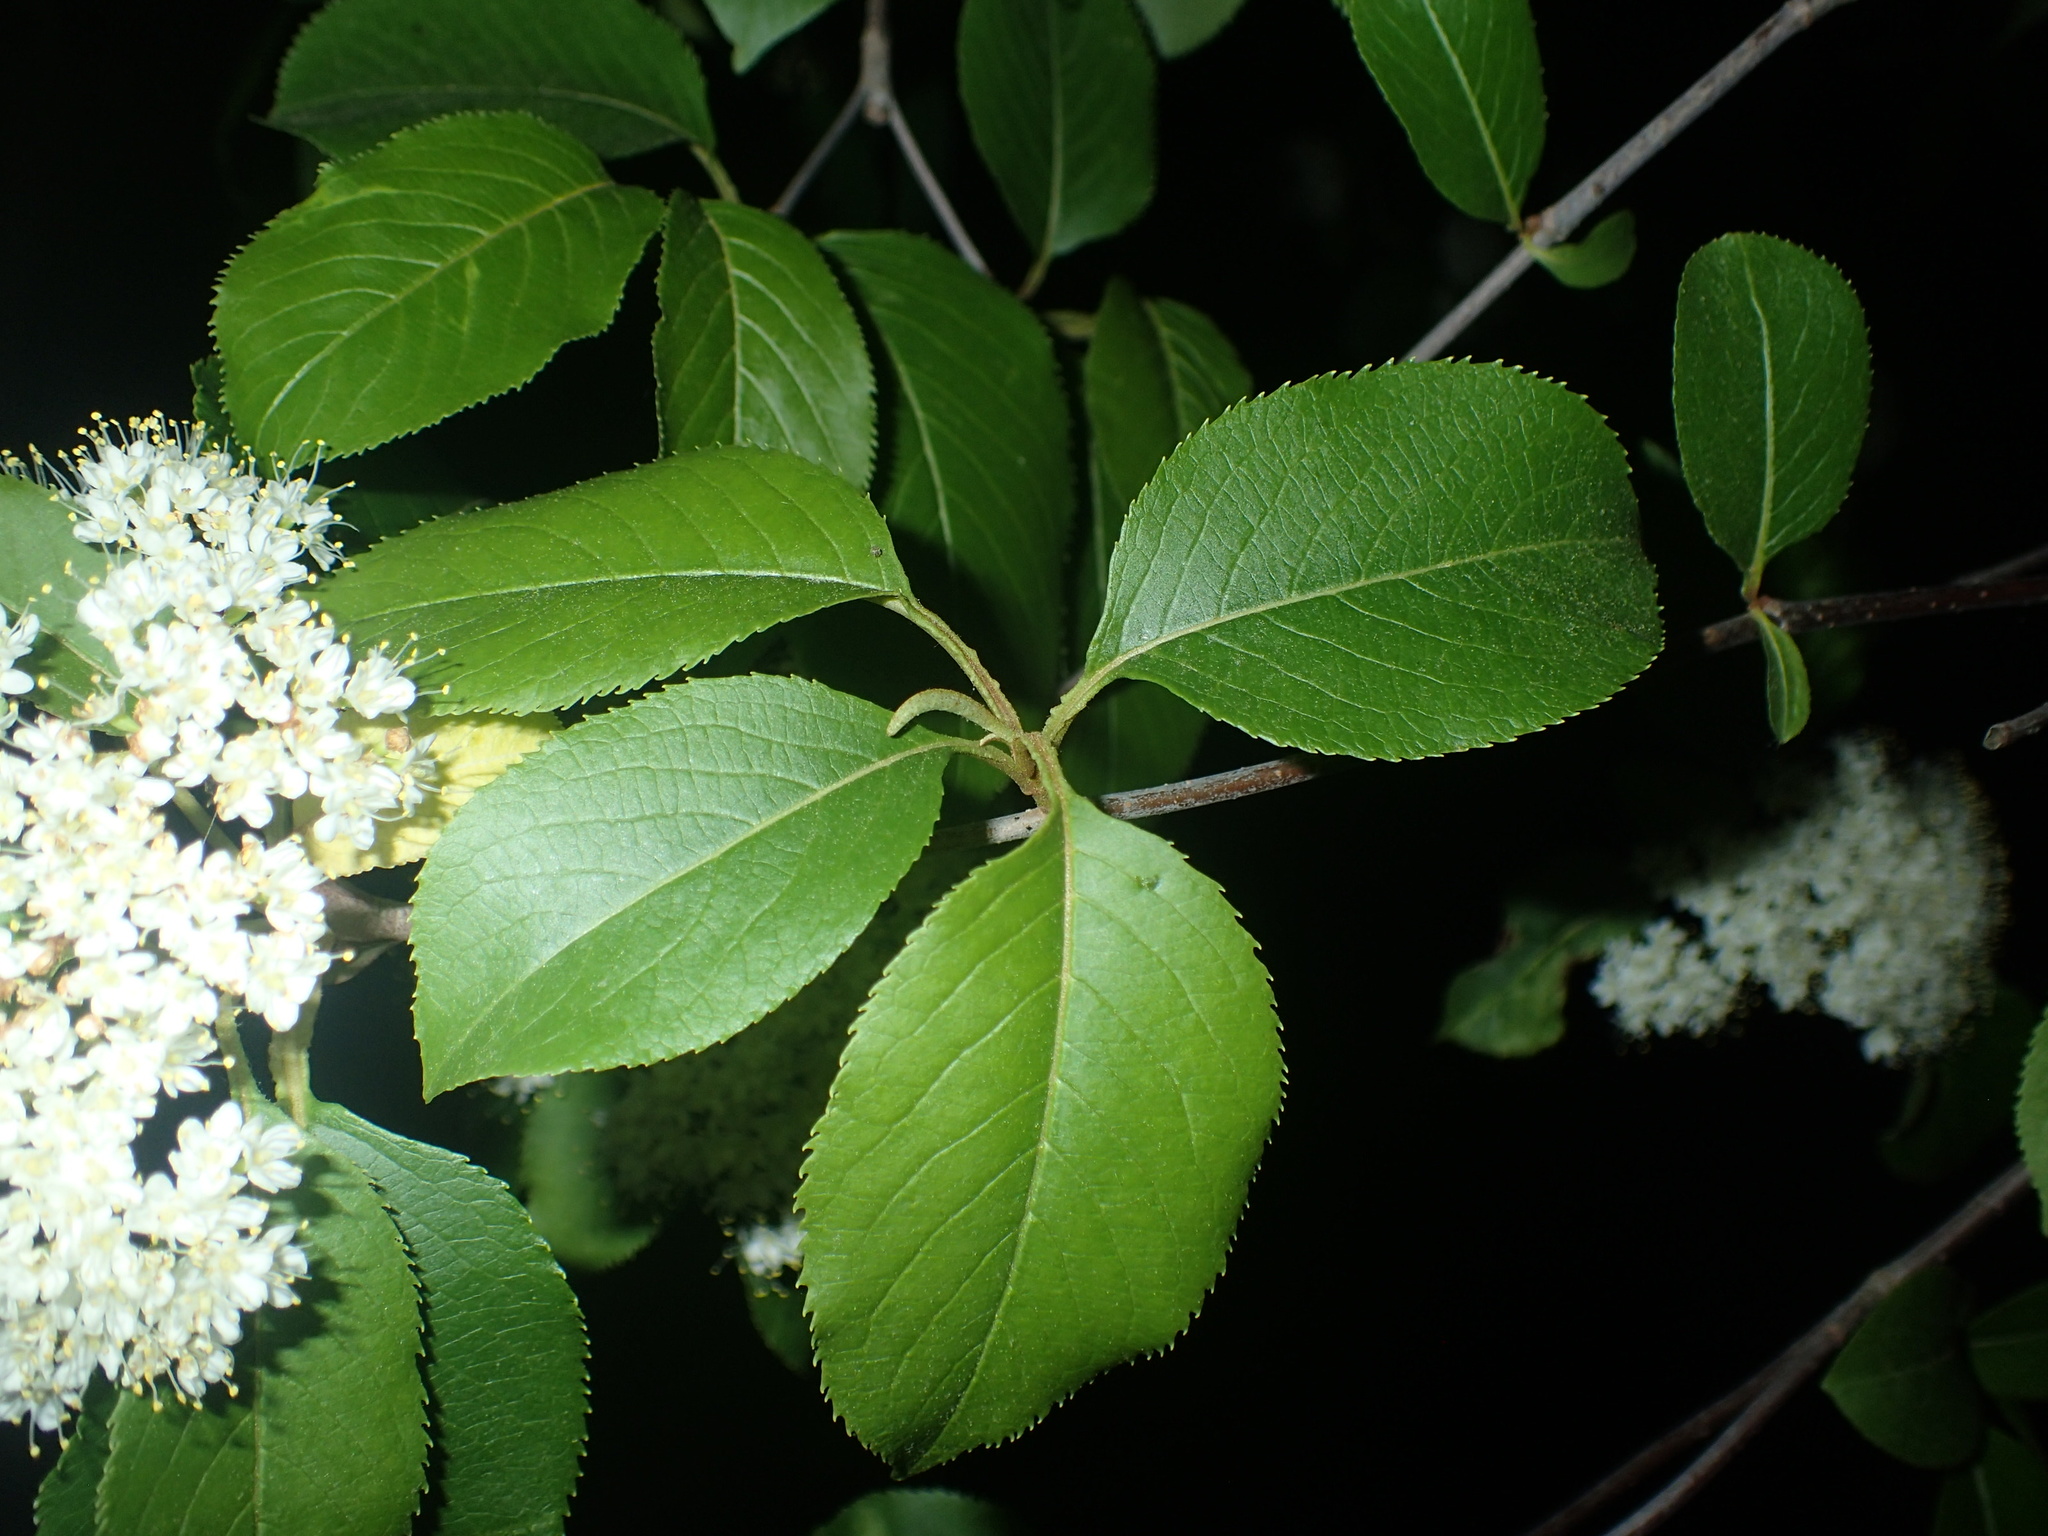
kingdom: Plantae
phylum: Tracheophyta
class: Magnoliopsida
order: Dipsacales
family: Viburnaceae
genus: Viburnum
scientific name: Viburnum lentago
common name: Black haw
